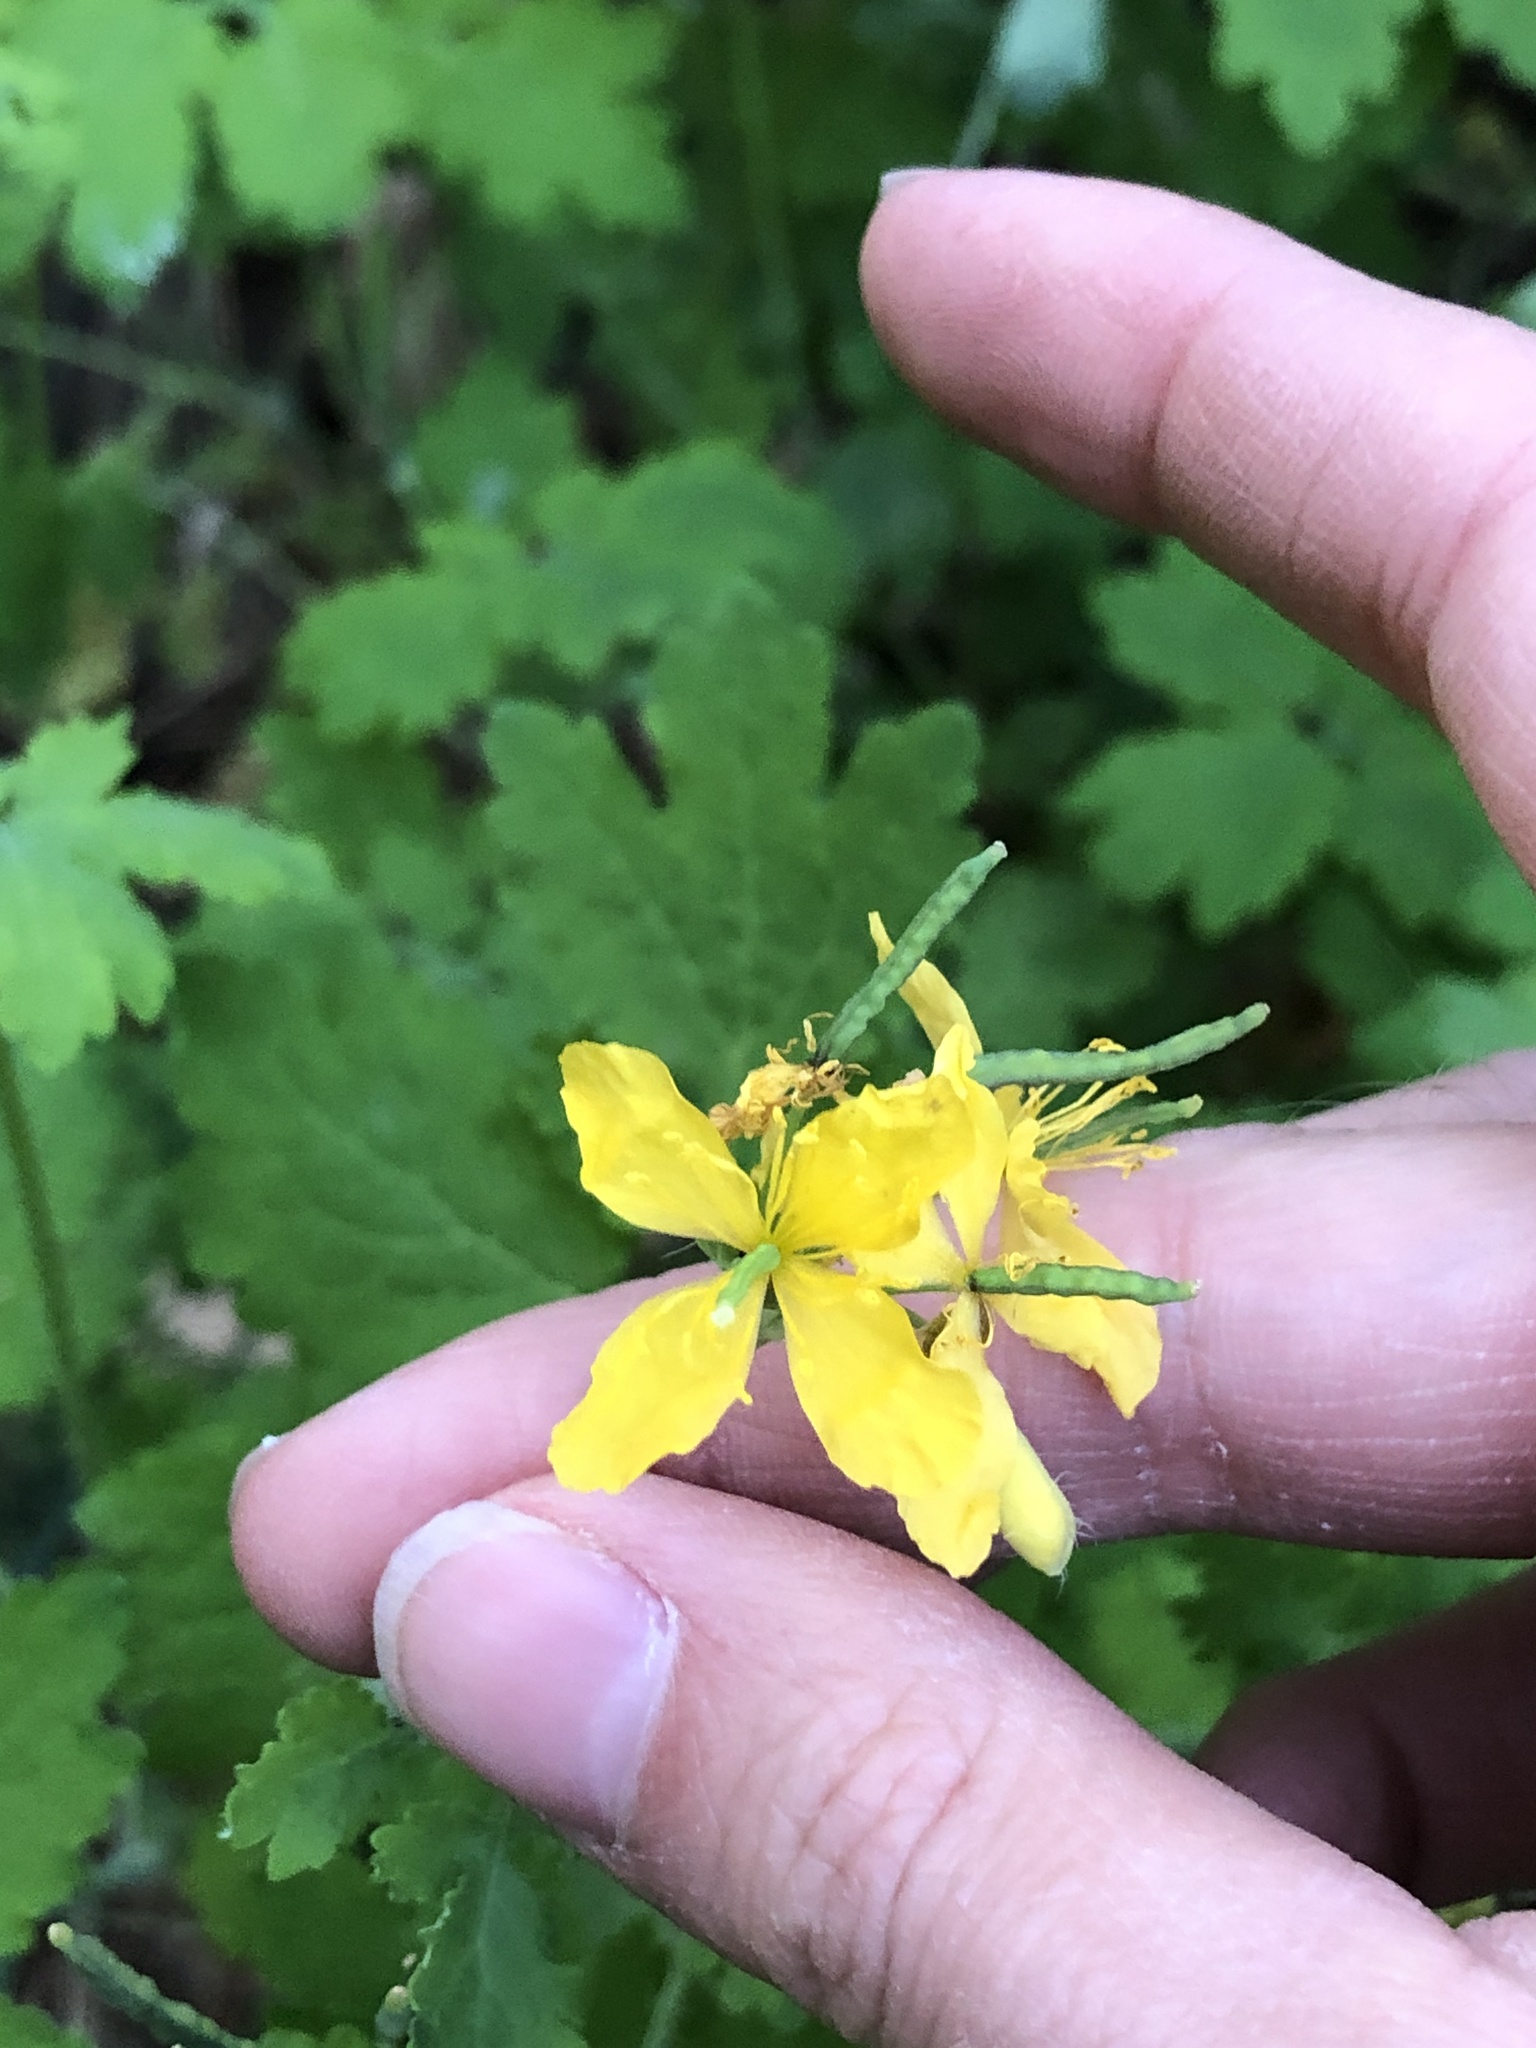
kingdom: Plantae
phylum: Tracheophyta
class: Magnoliopsida
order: Ranunculales
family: Papaveraceae
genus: Chelidonium
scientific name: Chelidonium majus
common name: Greater celandine
